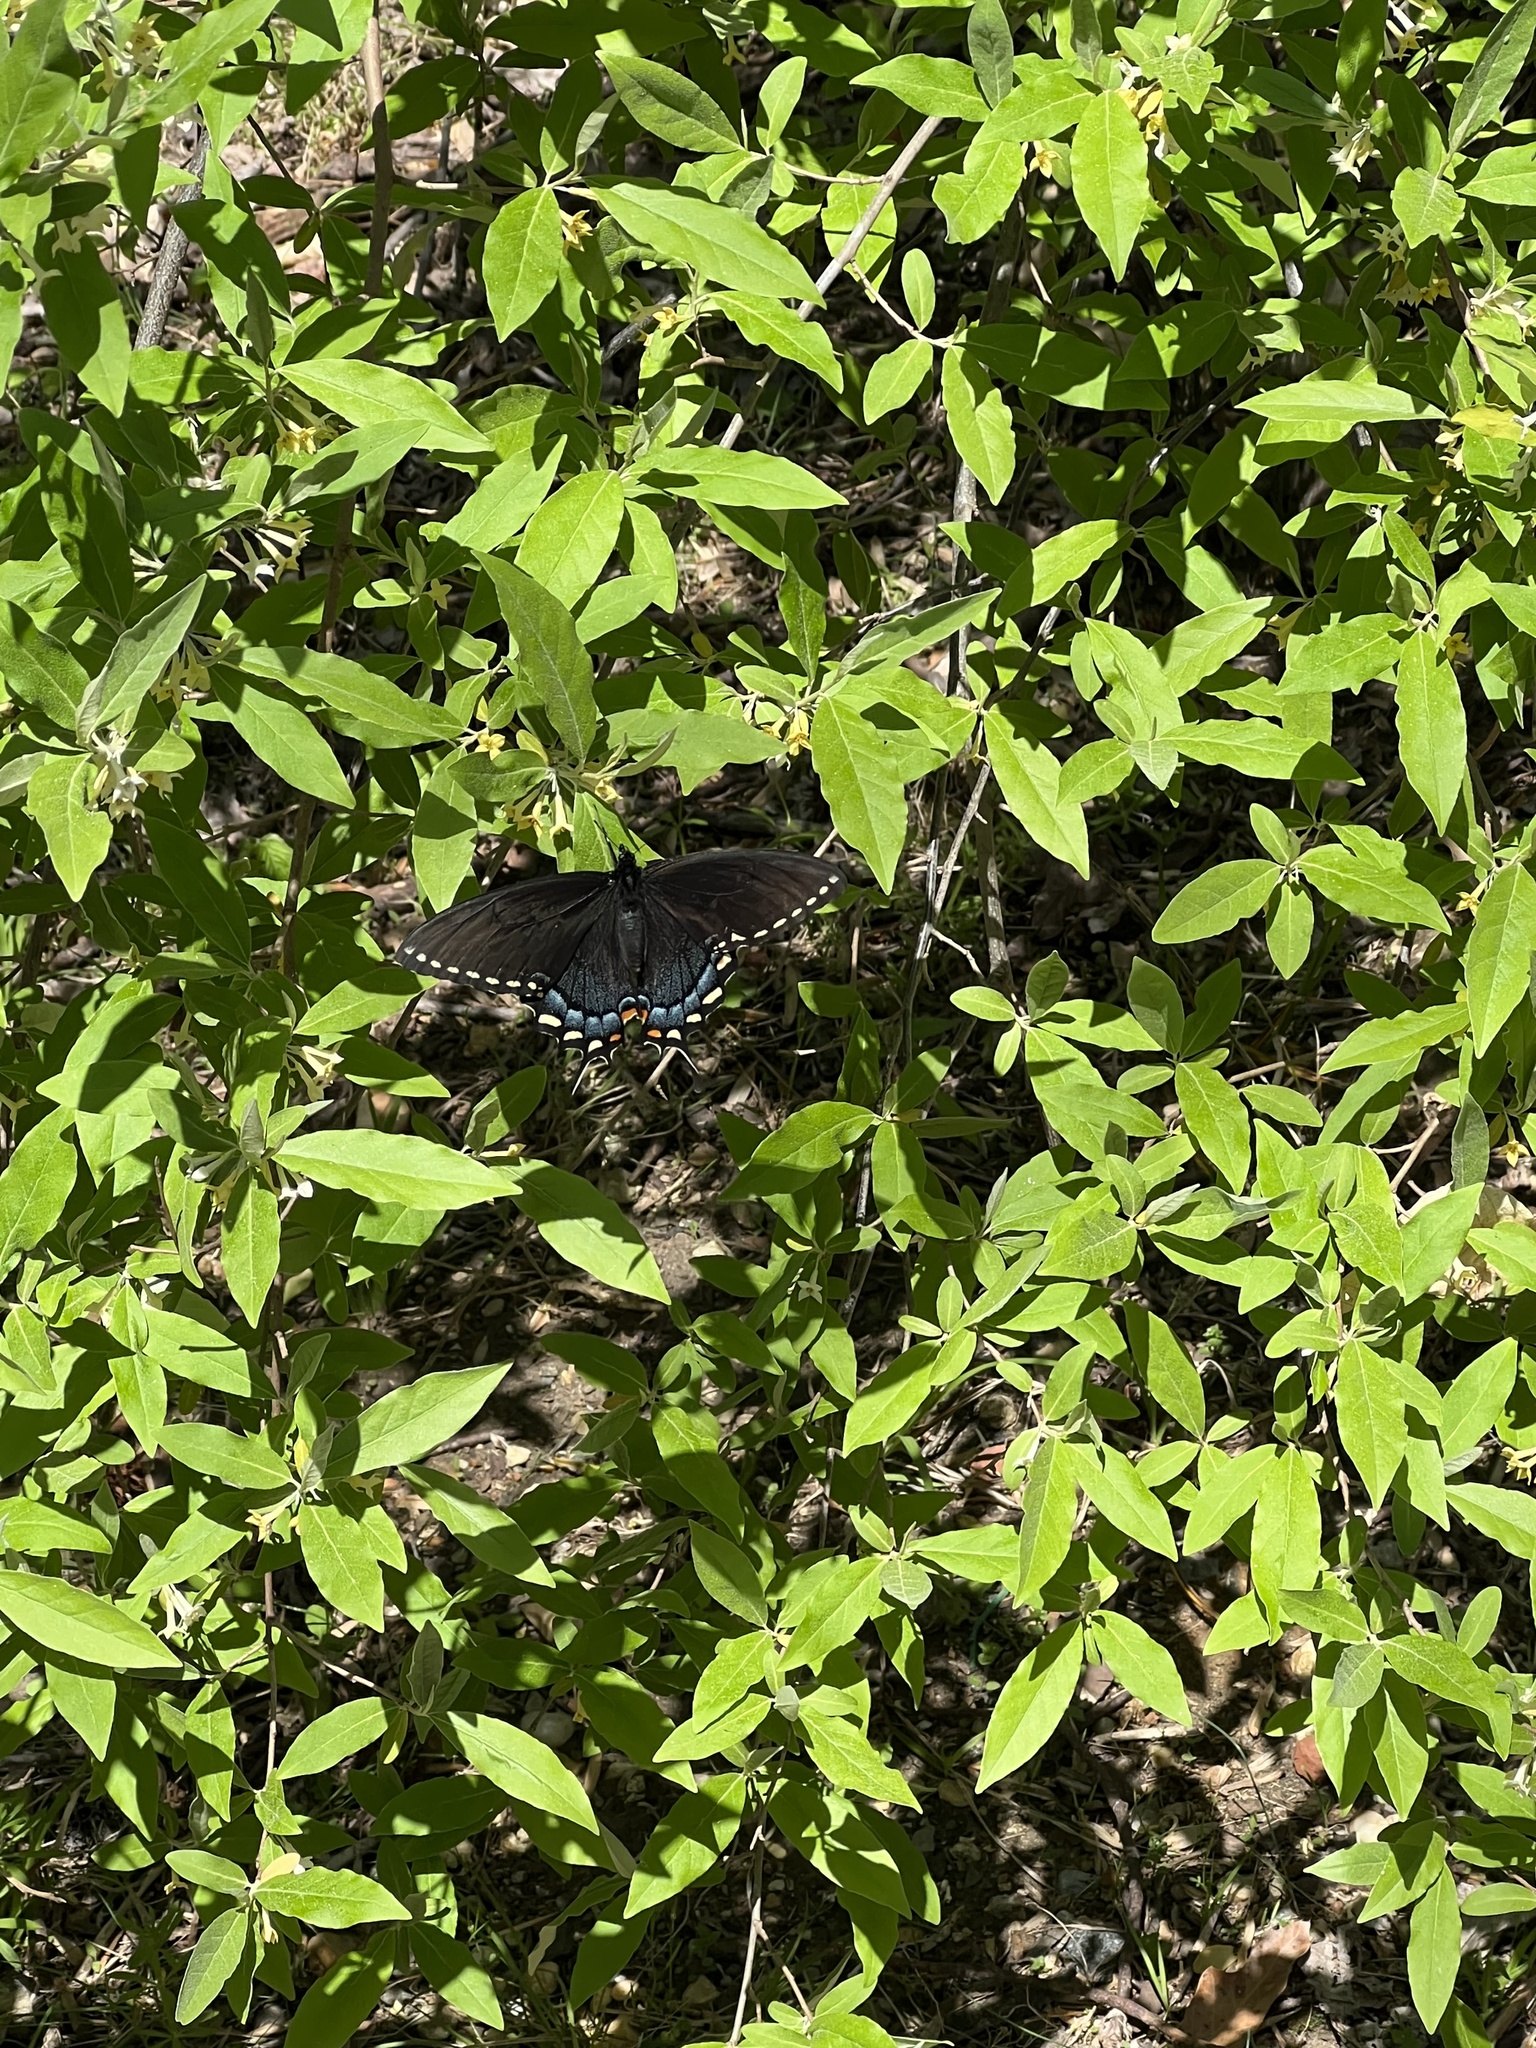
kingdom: Animalia
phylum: Arthropoda
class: Insecta
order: Lepidoptera
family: Papilionidae
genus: Papilio
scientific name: Papilio glaucus
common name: Tiger swallowtail
